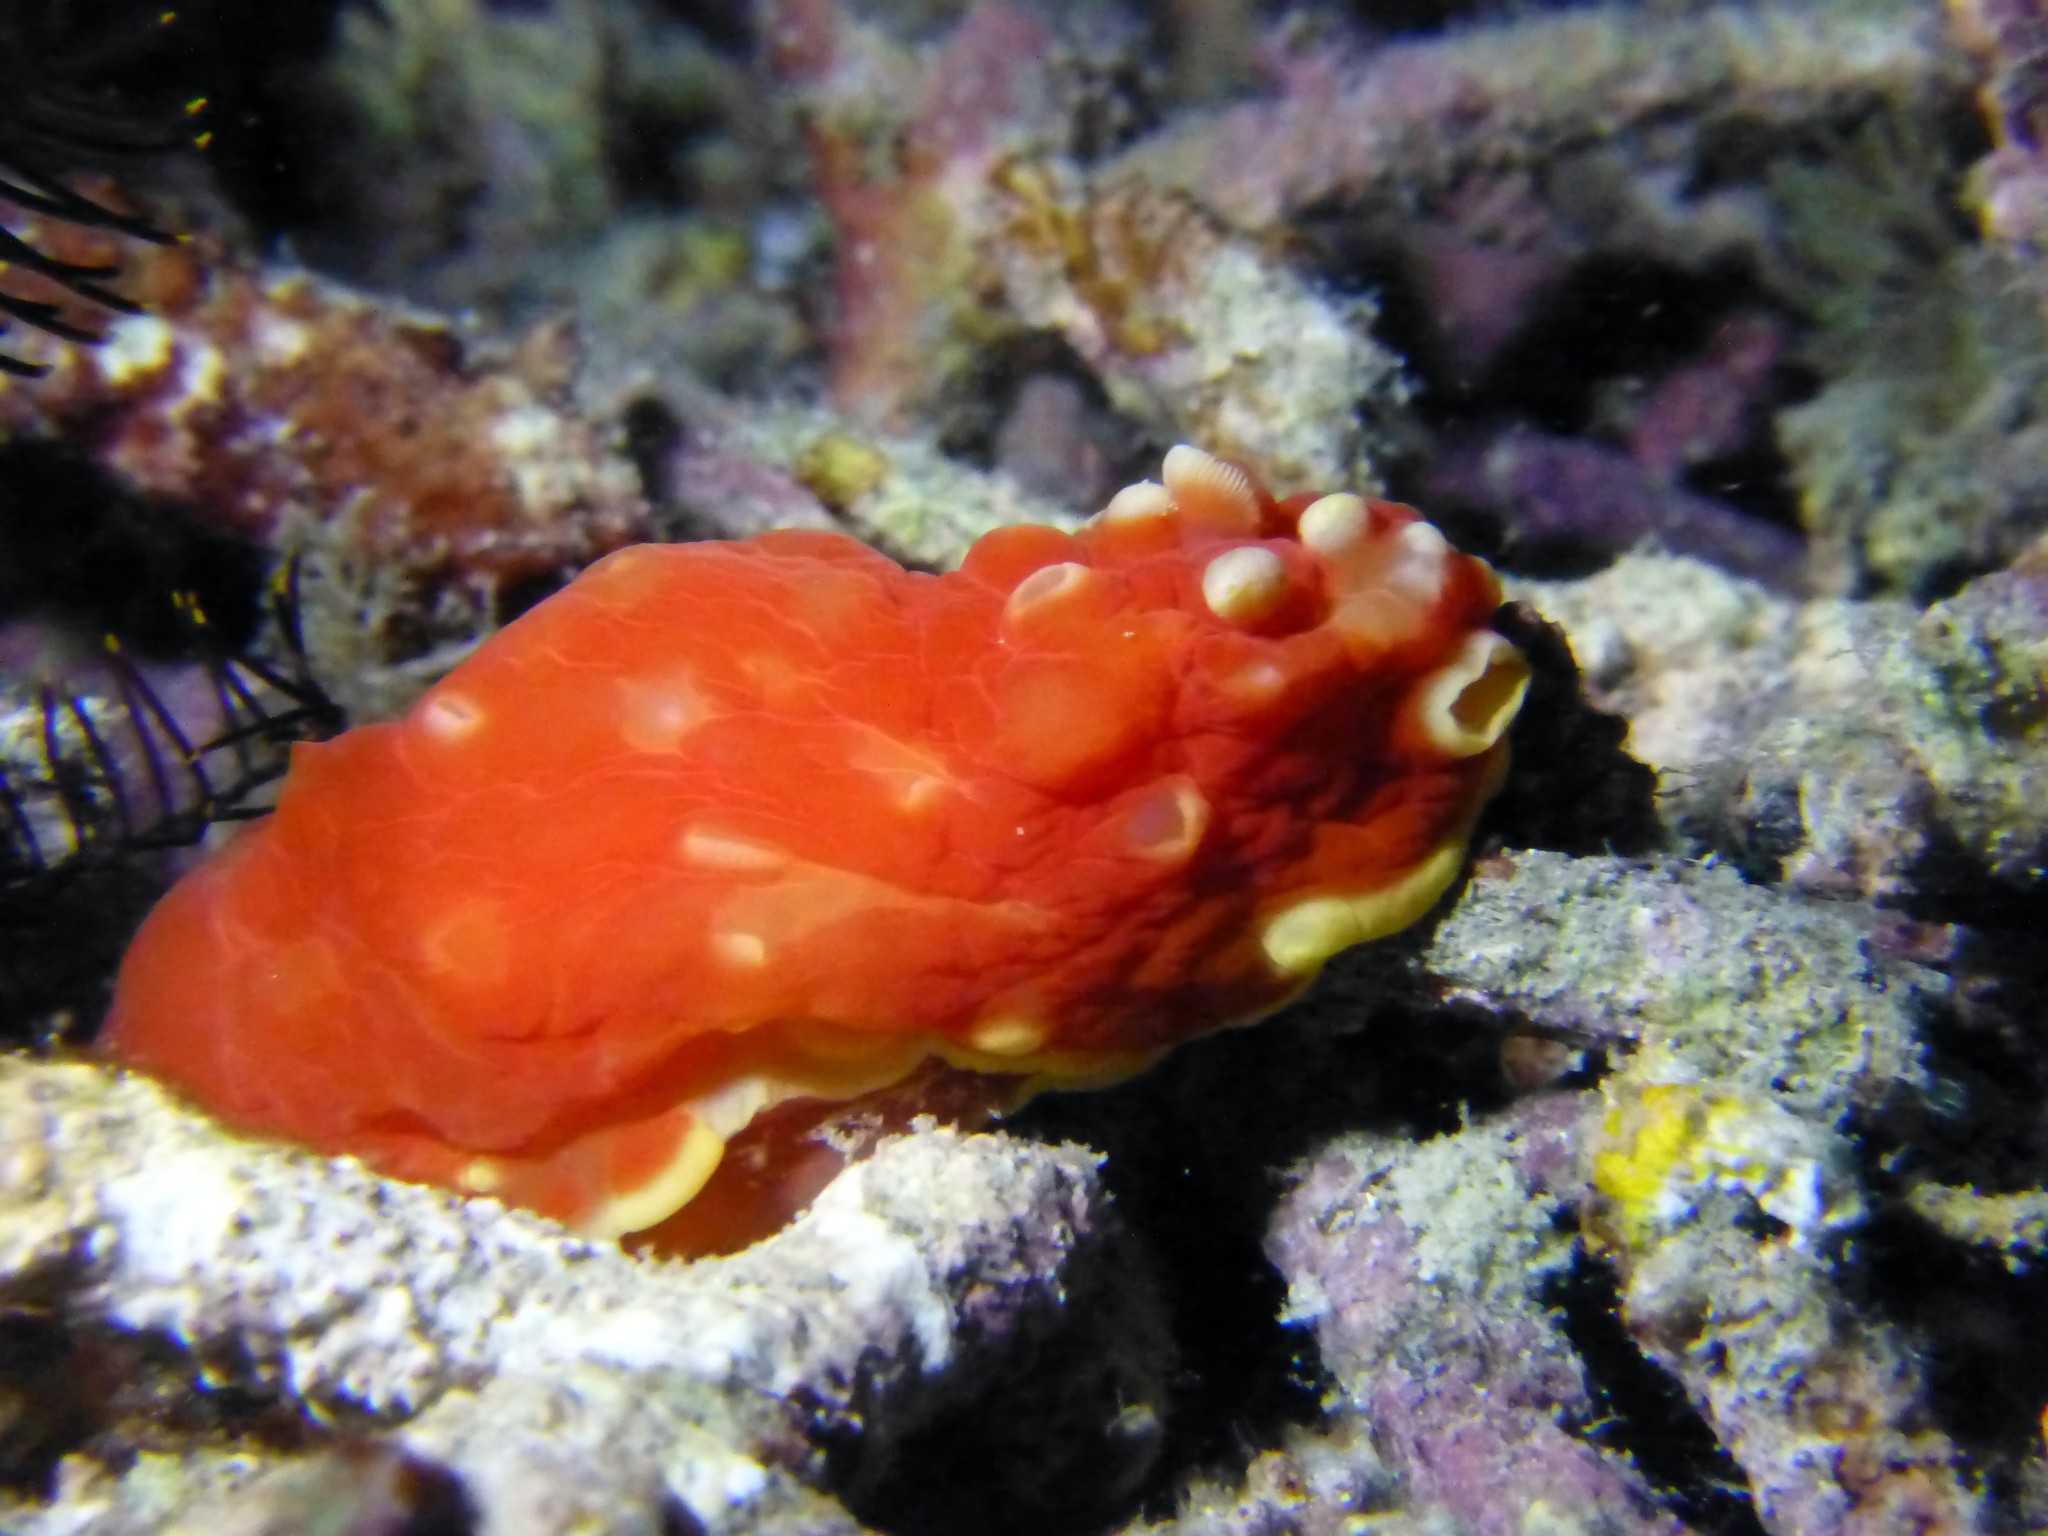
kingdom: Animalia
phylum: Mollusca
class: Gastropoda
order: Nudibranchia
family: Polyceridae
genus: Gymnodoris
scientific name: Gymnodoris aurita
